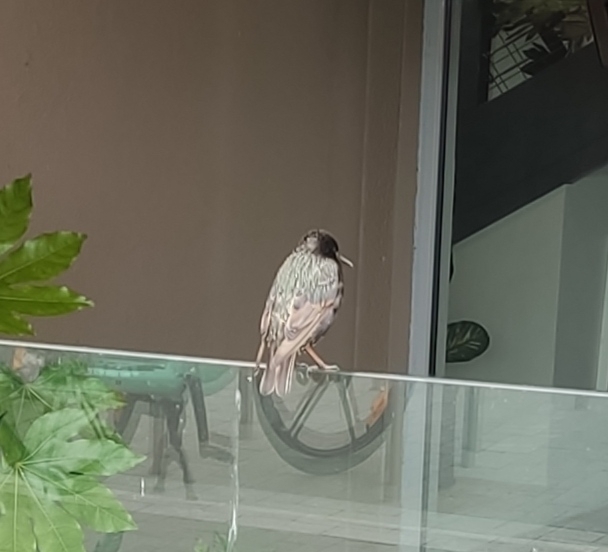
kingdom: Animalia
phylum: Chordata
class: Aves
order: Passeriformes
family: Sturnidae
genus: Sturnus
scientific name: Sturnus vulgaris
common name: Common starling
